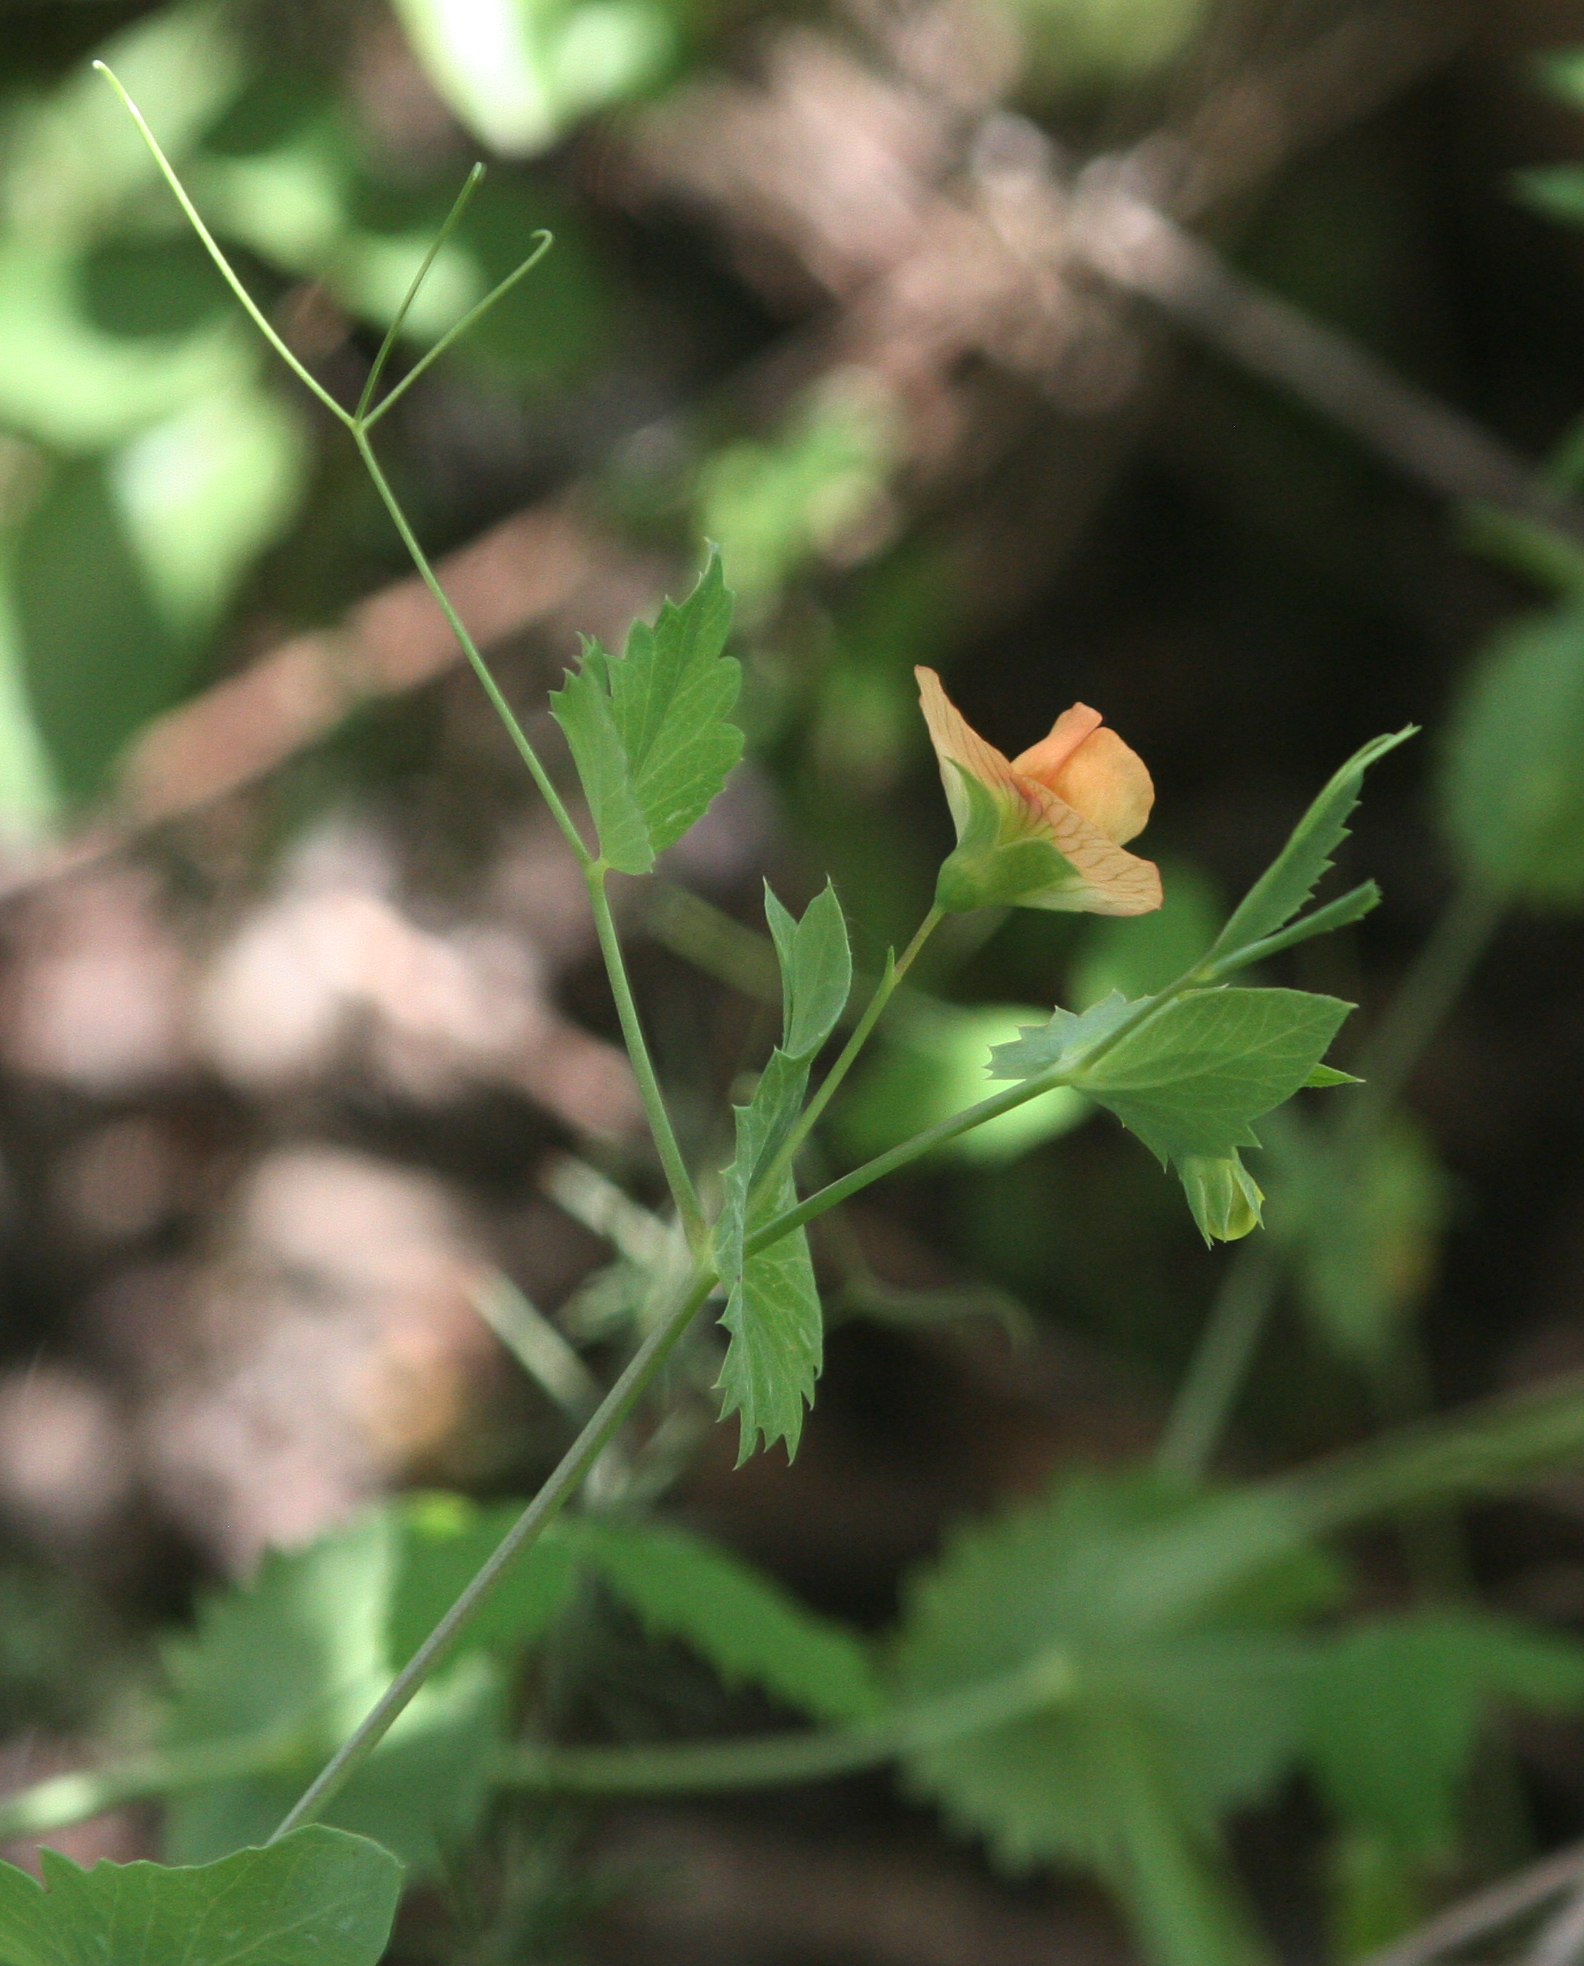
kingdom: Plantae
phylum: Tracheophyta
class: Magnoliopsida
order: Fabales
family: Fabaceae
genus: Lathyrus
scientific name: Lathyrus fulvus
